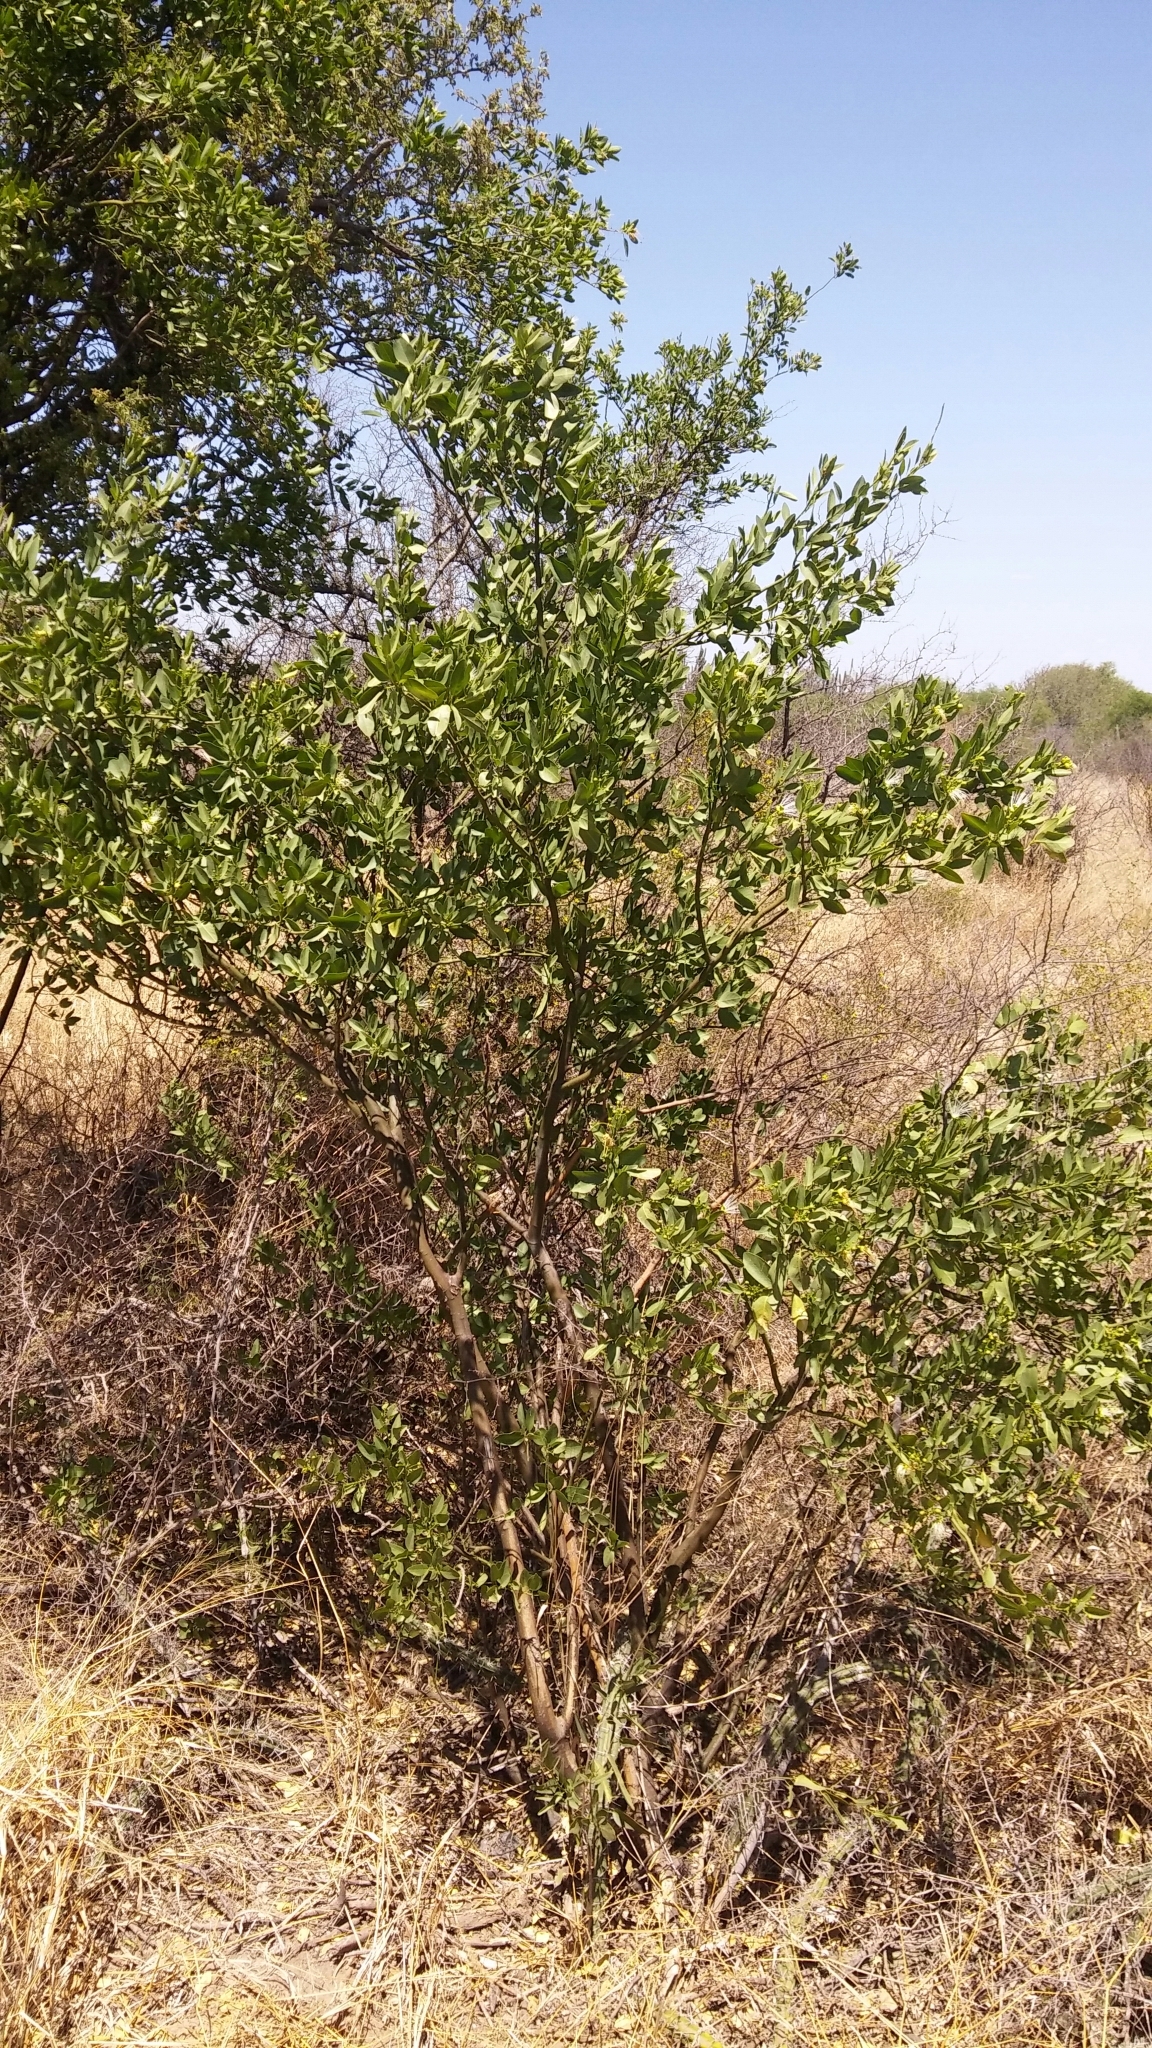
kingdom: Plantae
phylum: Tracheophyta
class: Magnoliopsida
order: Brassicales
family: Capparaceae
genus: Anisocapparis
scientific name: Anisocapparis speciosa
